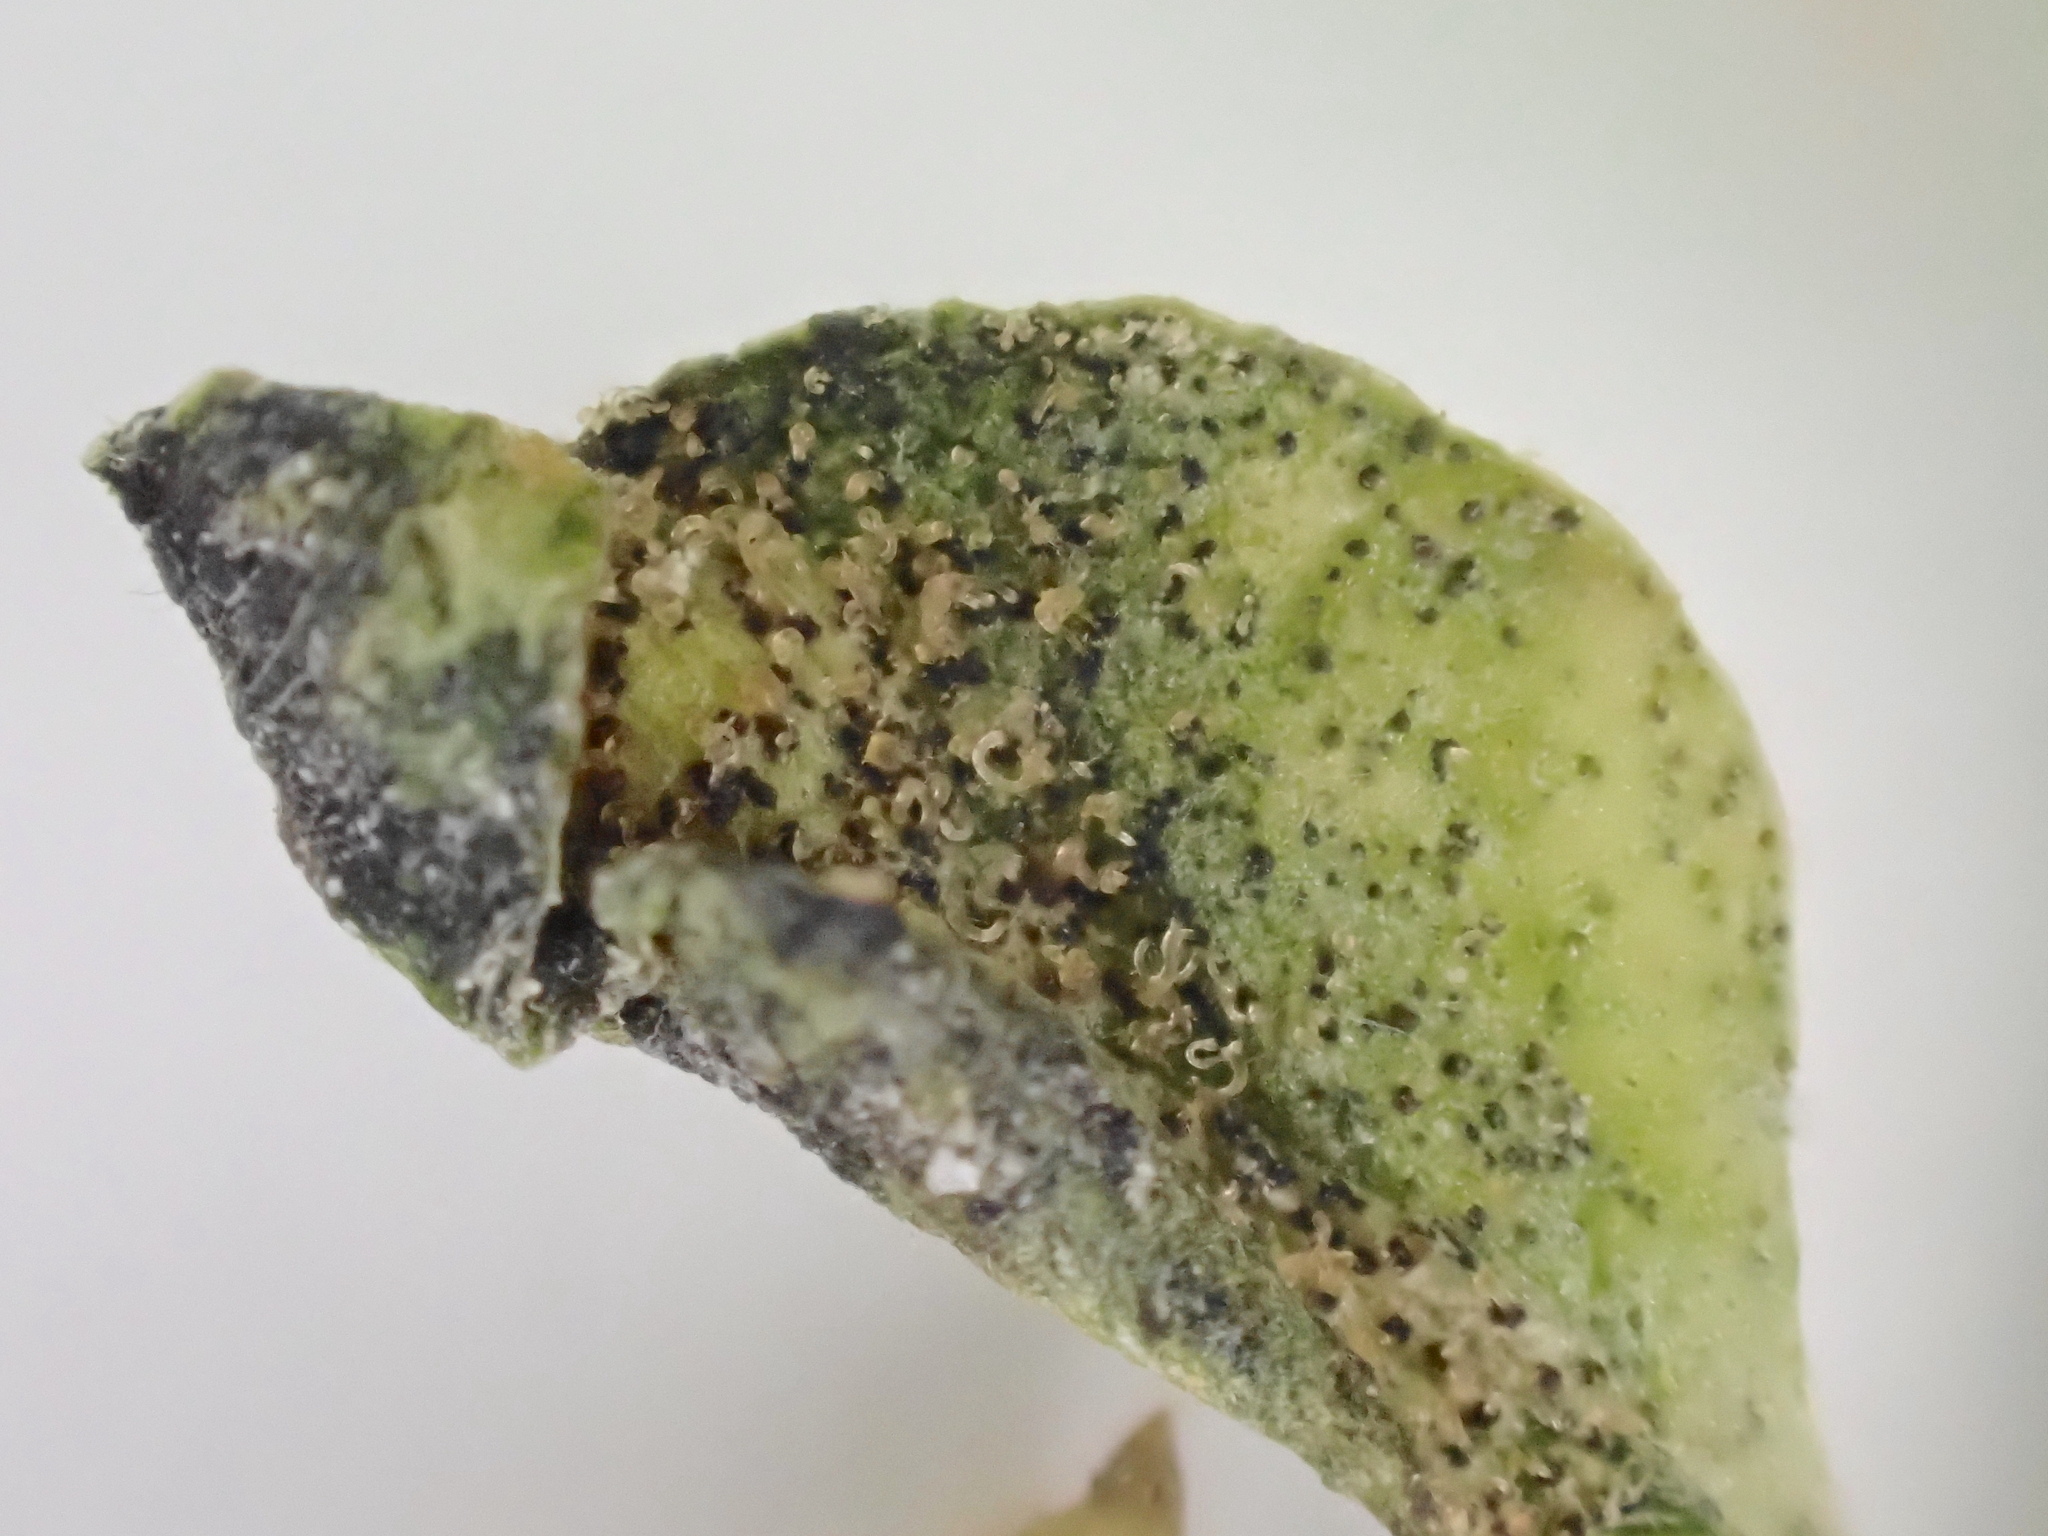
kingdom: Fungi
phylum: Ascomycota
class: Dothideomycetes
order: Mycosphaerellales
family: Mycosphaerellaceae
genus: Septoria
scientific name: Septoria stellariae
